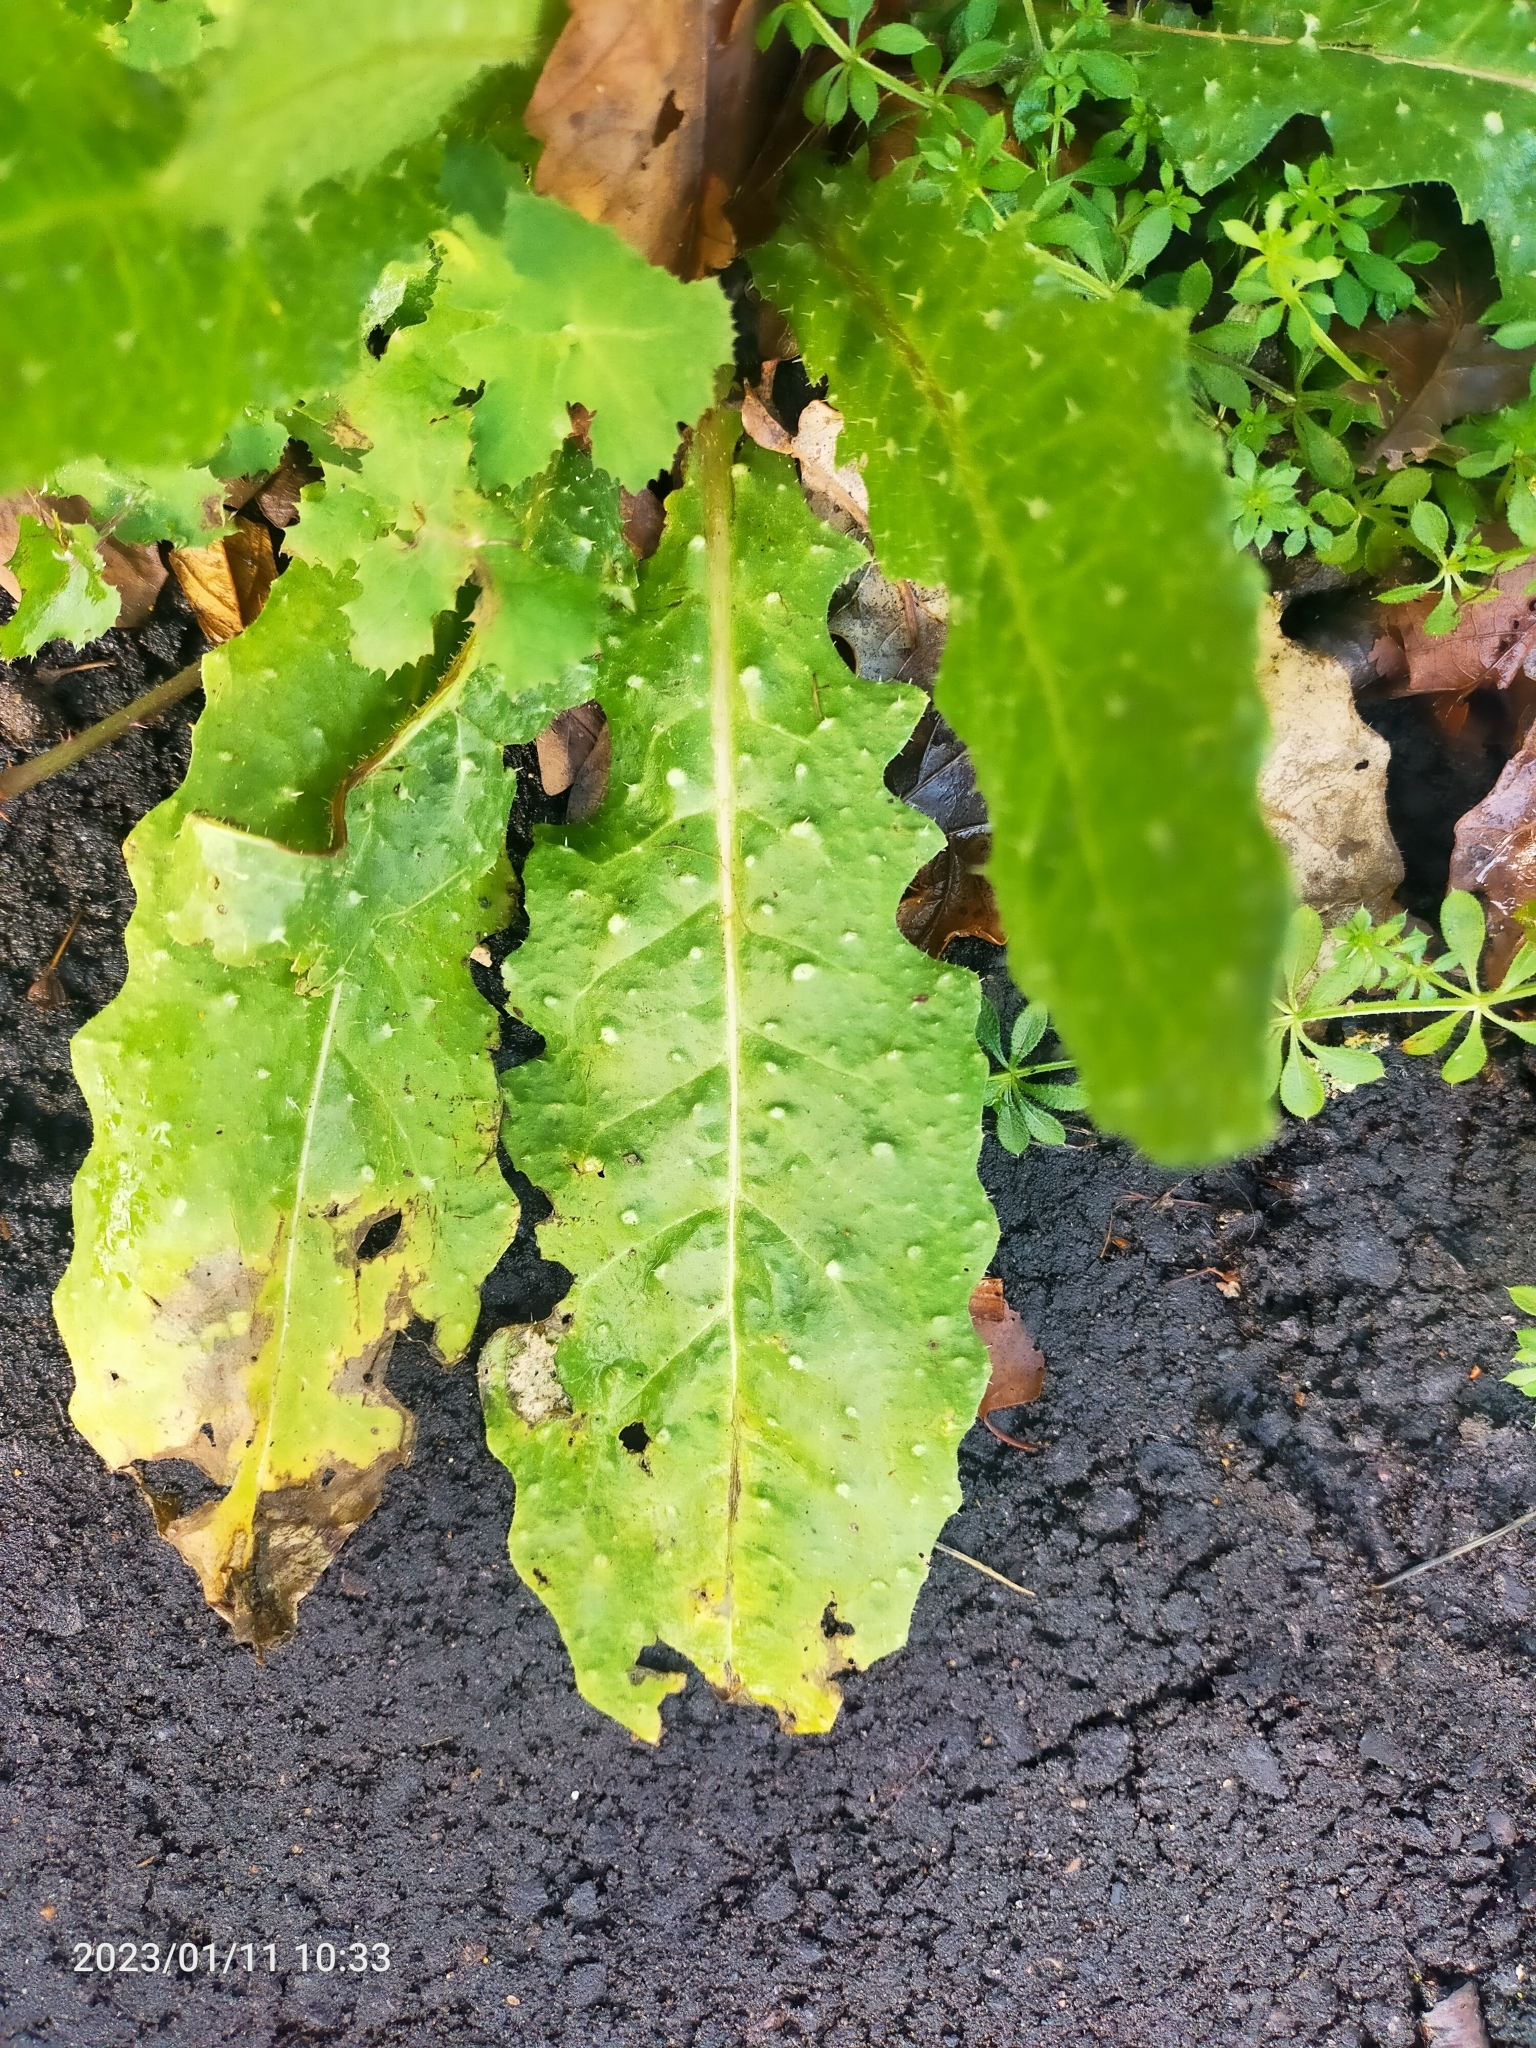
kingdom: Plantae
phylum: Tracheophyta
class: Magnoliopsida
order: Asterales
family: Asteraceae
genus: Helminthotheca
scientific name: Helminthotheca echioides
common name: Ox-tongue
